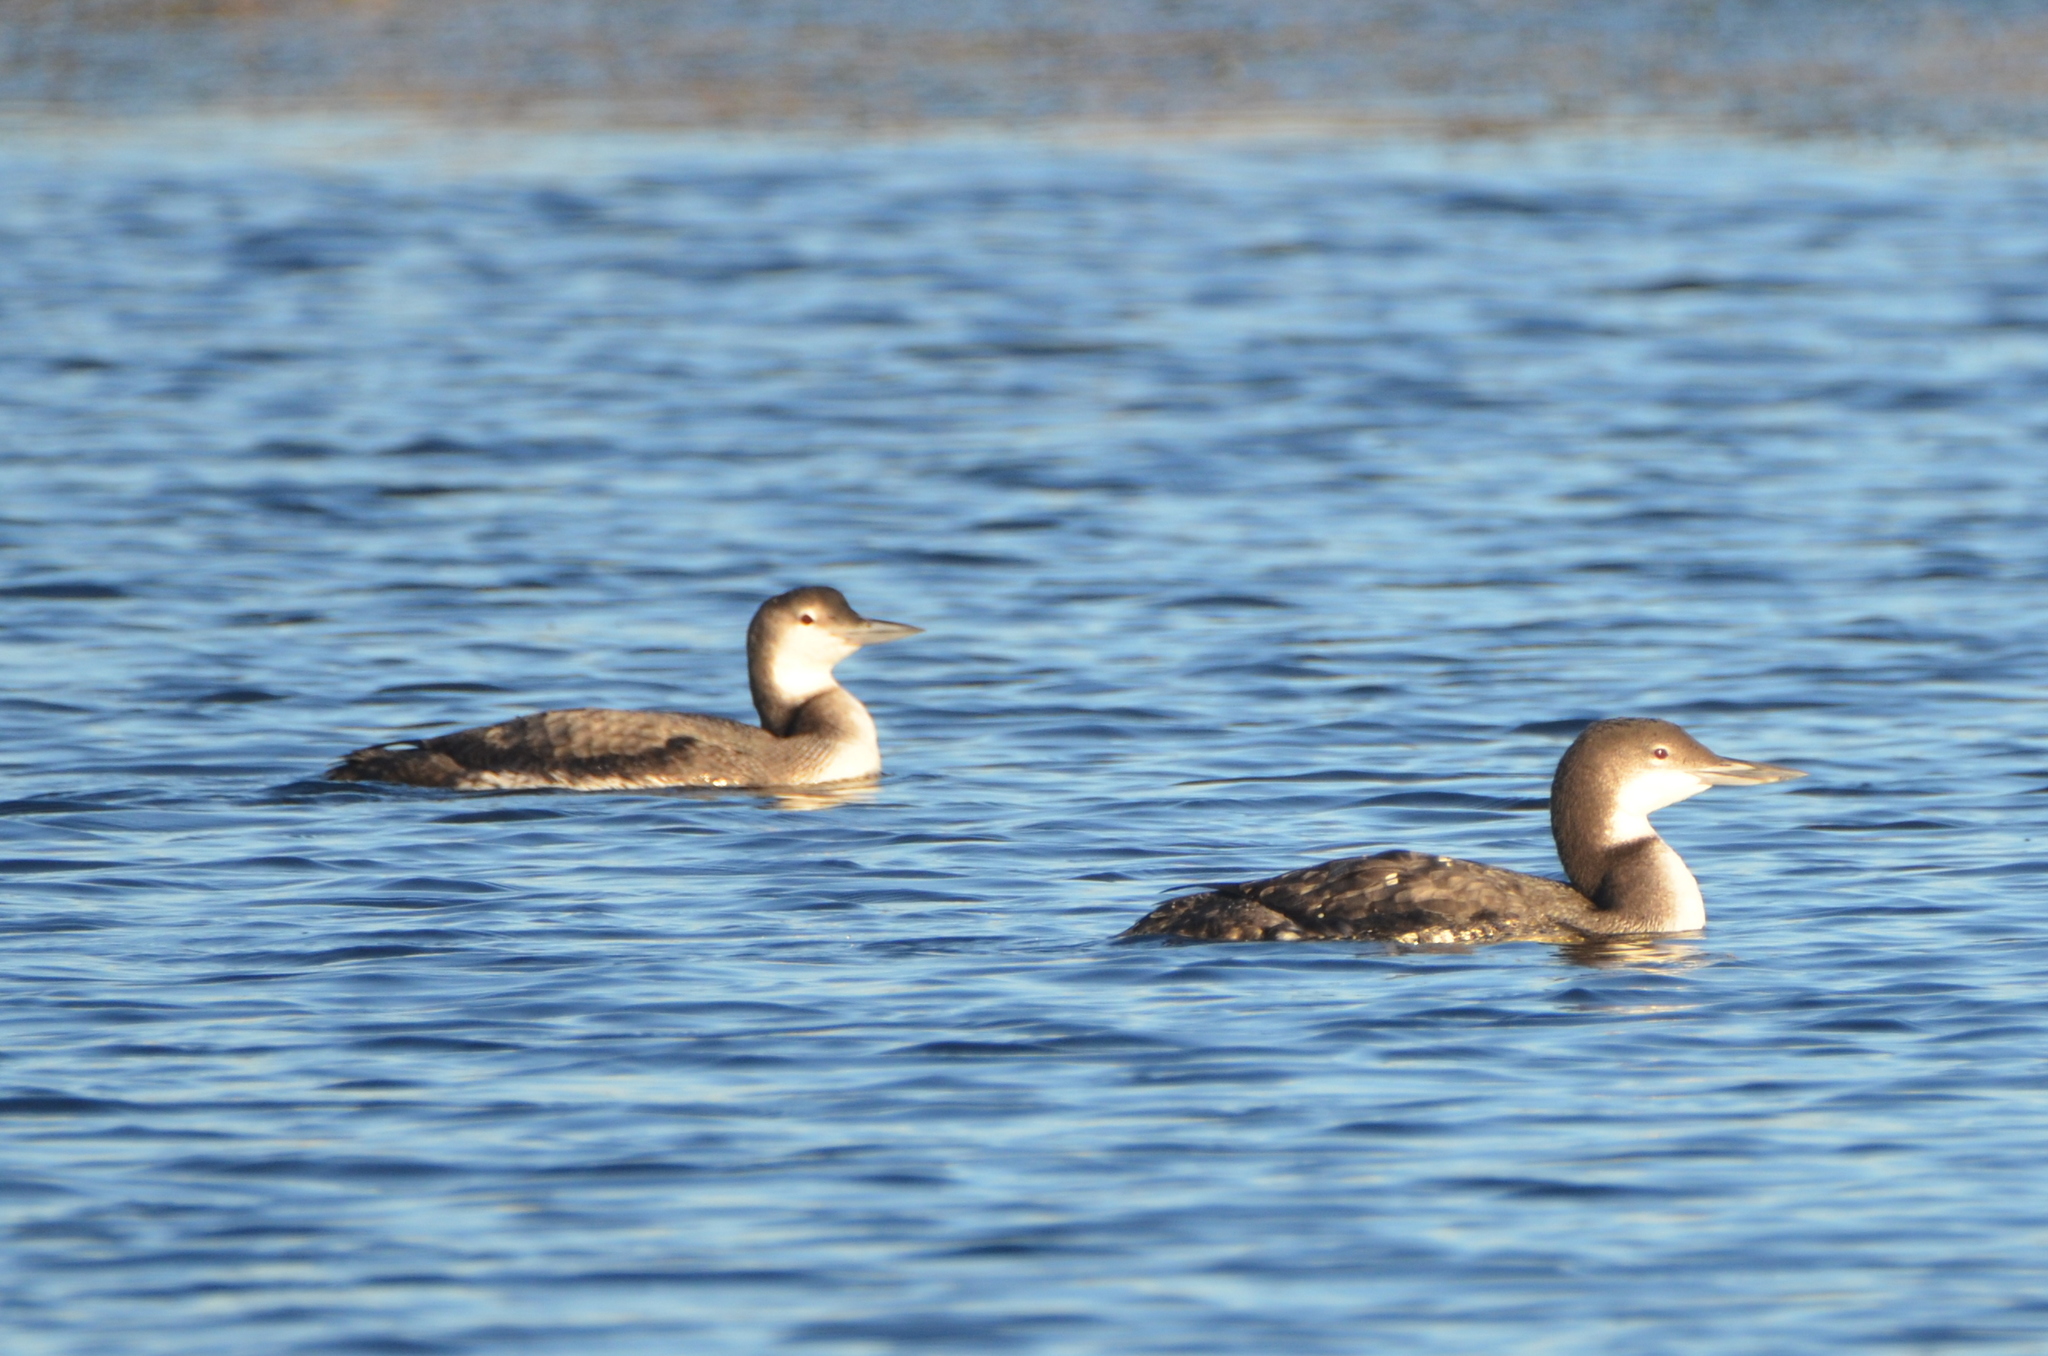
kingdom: Animalia
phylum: Chordata
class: Aves
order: Gaviiformes
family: Gaviidae
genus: Gavia
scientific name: Gavia immer
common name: Common loon
